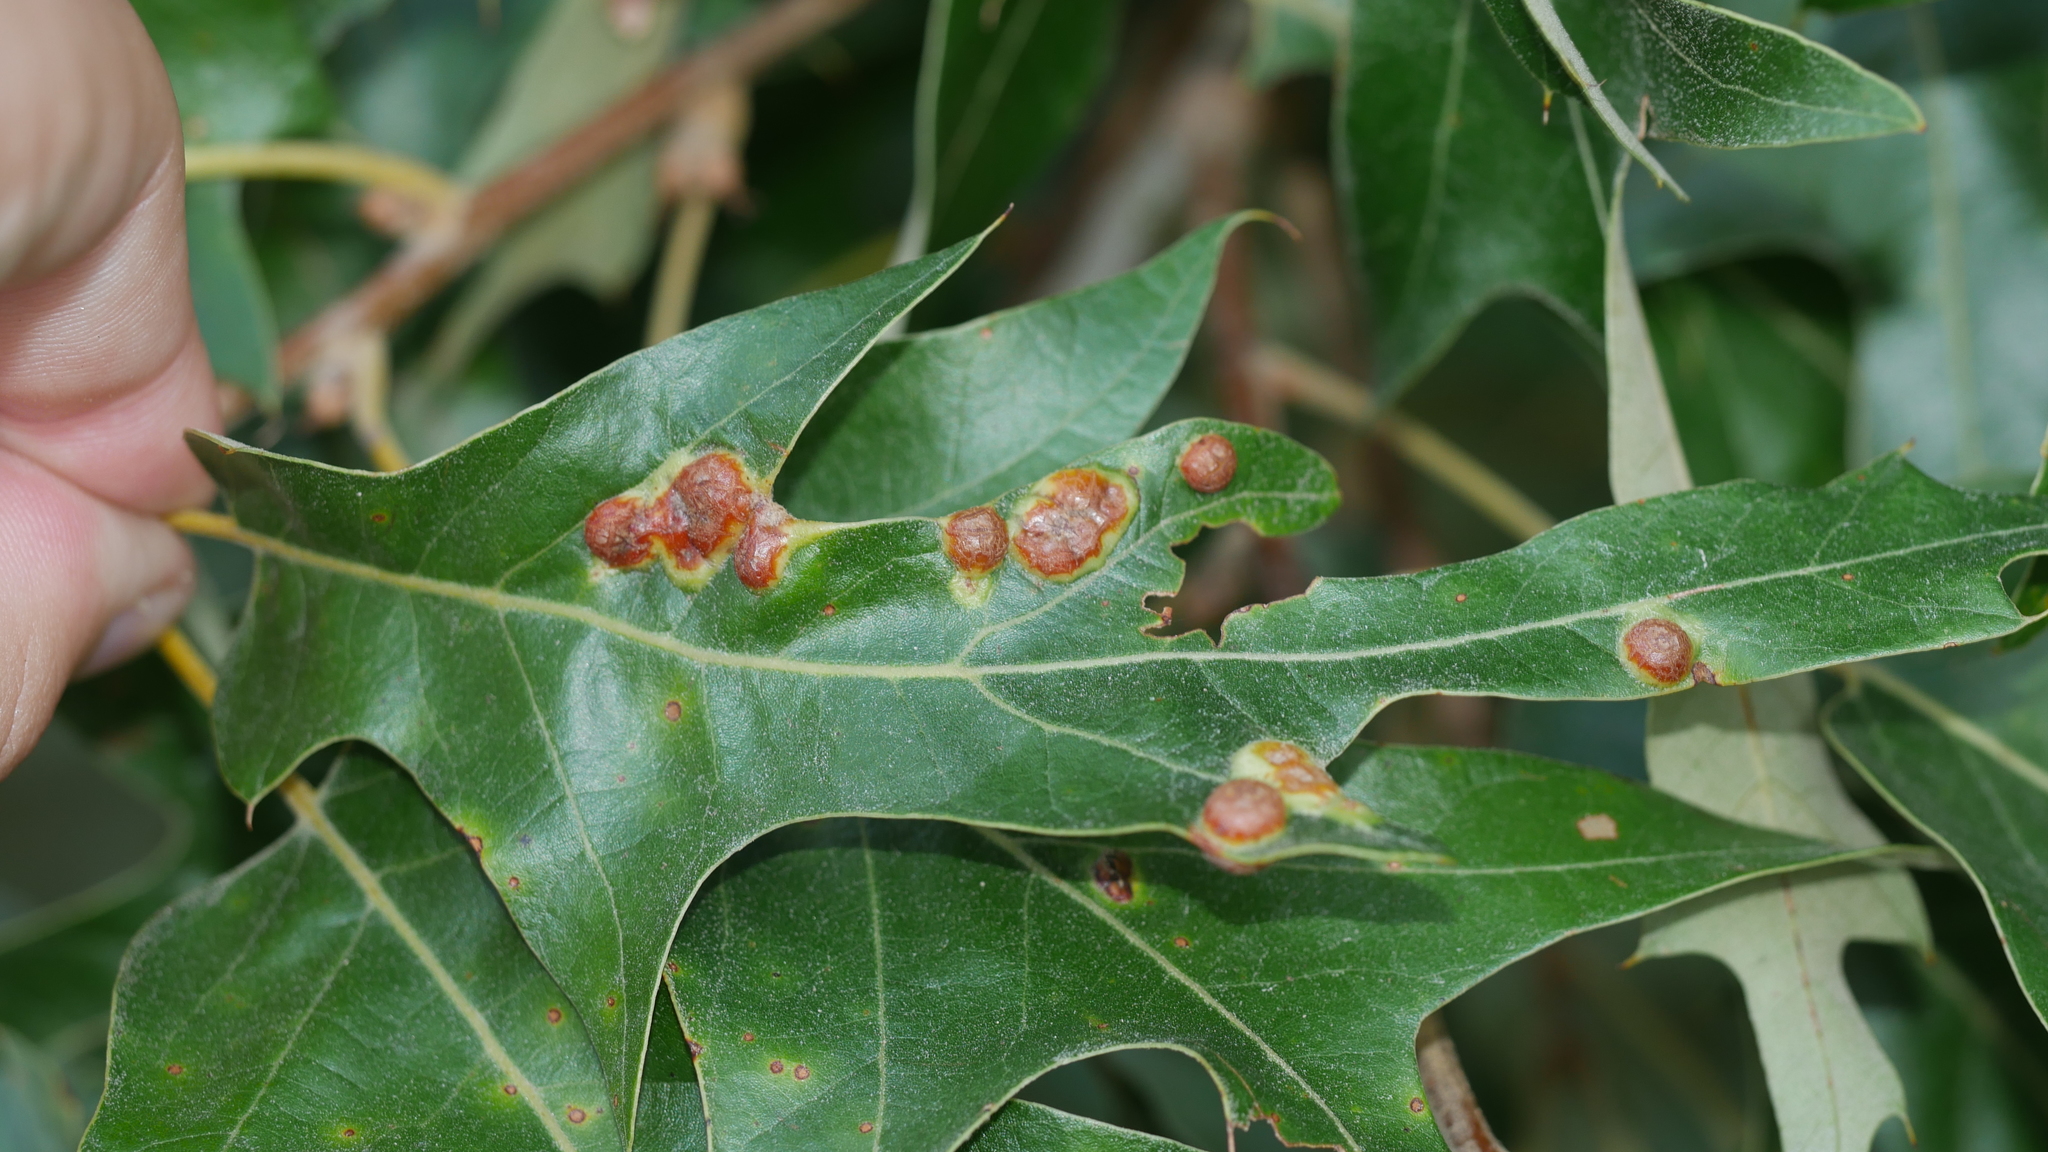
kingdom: Animalia
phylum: Arthropoda
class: Insecta
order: Diptera
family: Cecidomyiidae
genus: Polystepha
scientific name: Polystepha symmetrica
